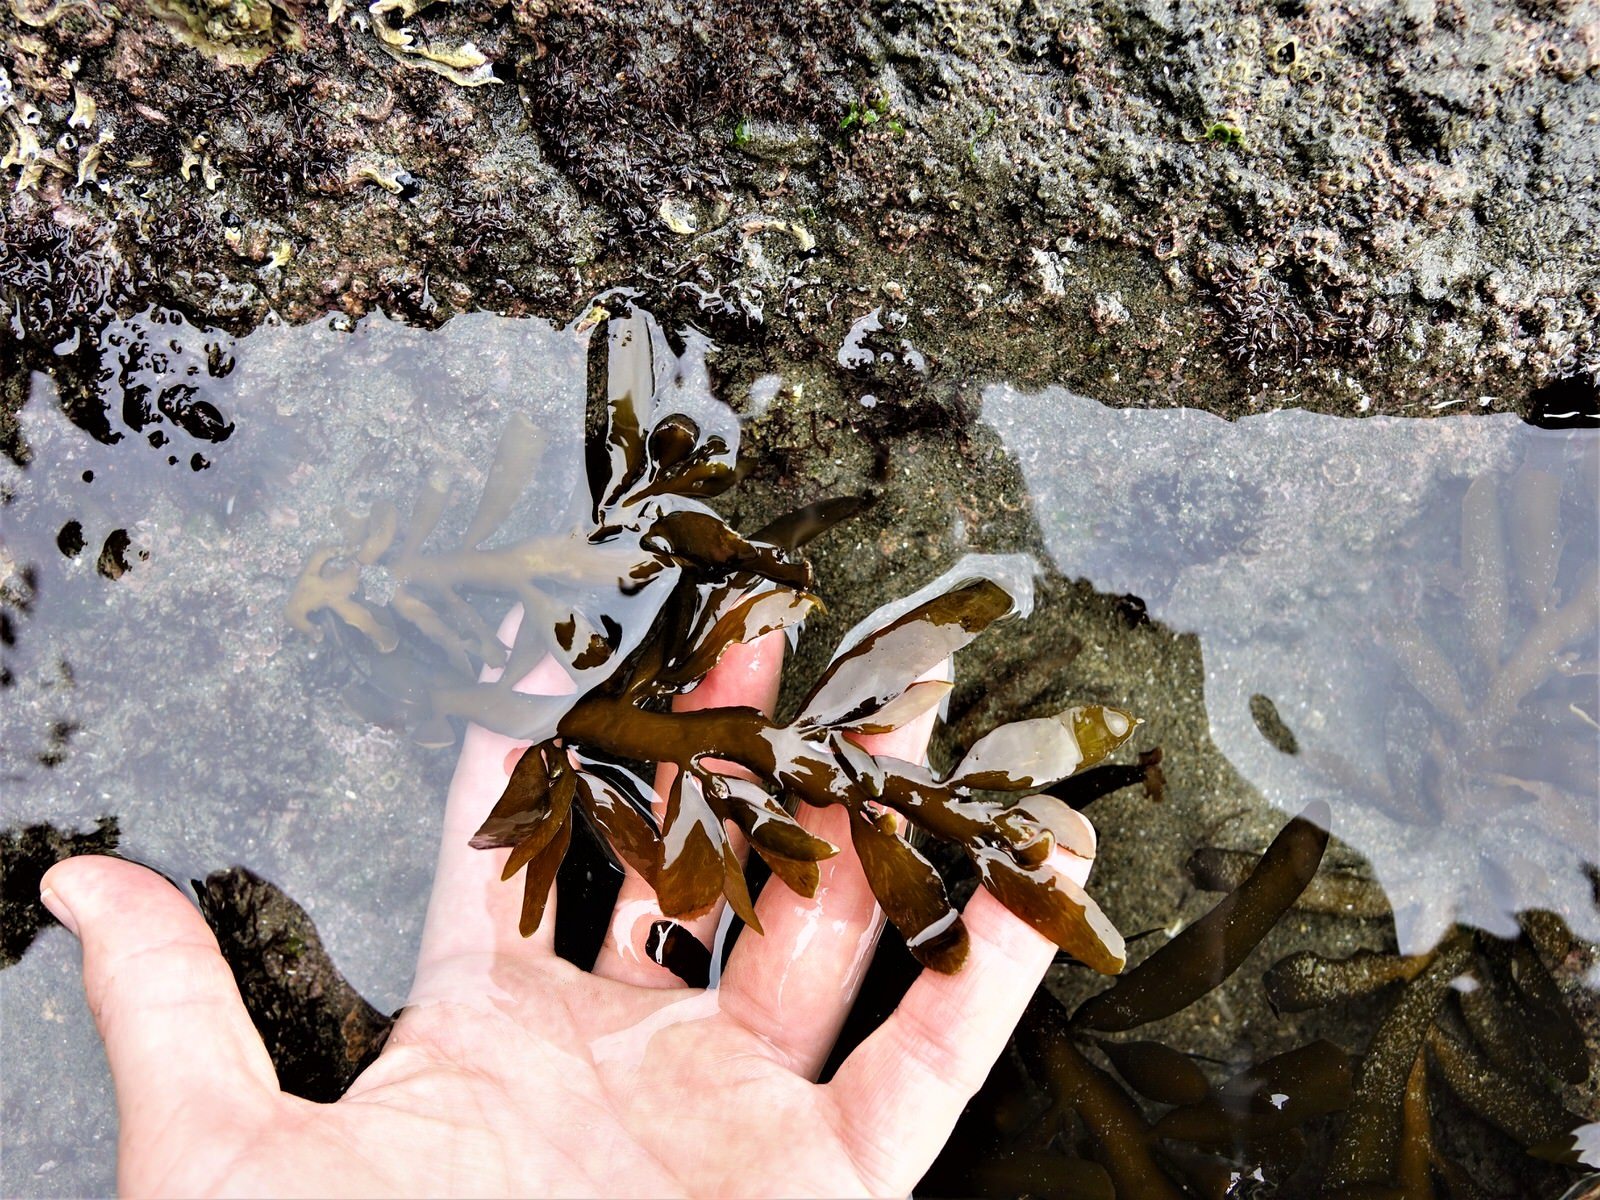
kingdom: Chromista
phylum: Ochrophyta
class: Phaeophyceae
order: Fucales
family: Sargassaceae
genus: Carpophyllum
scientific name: Carpophyllum maschalocarpum
